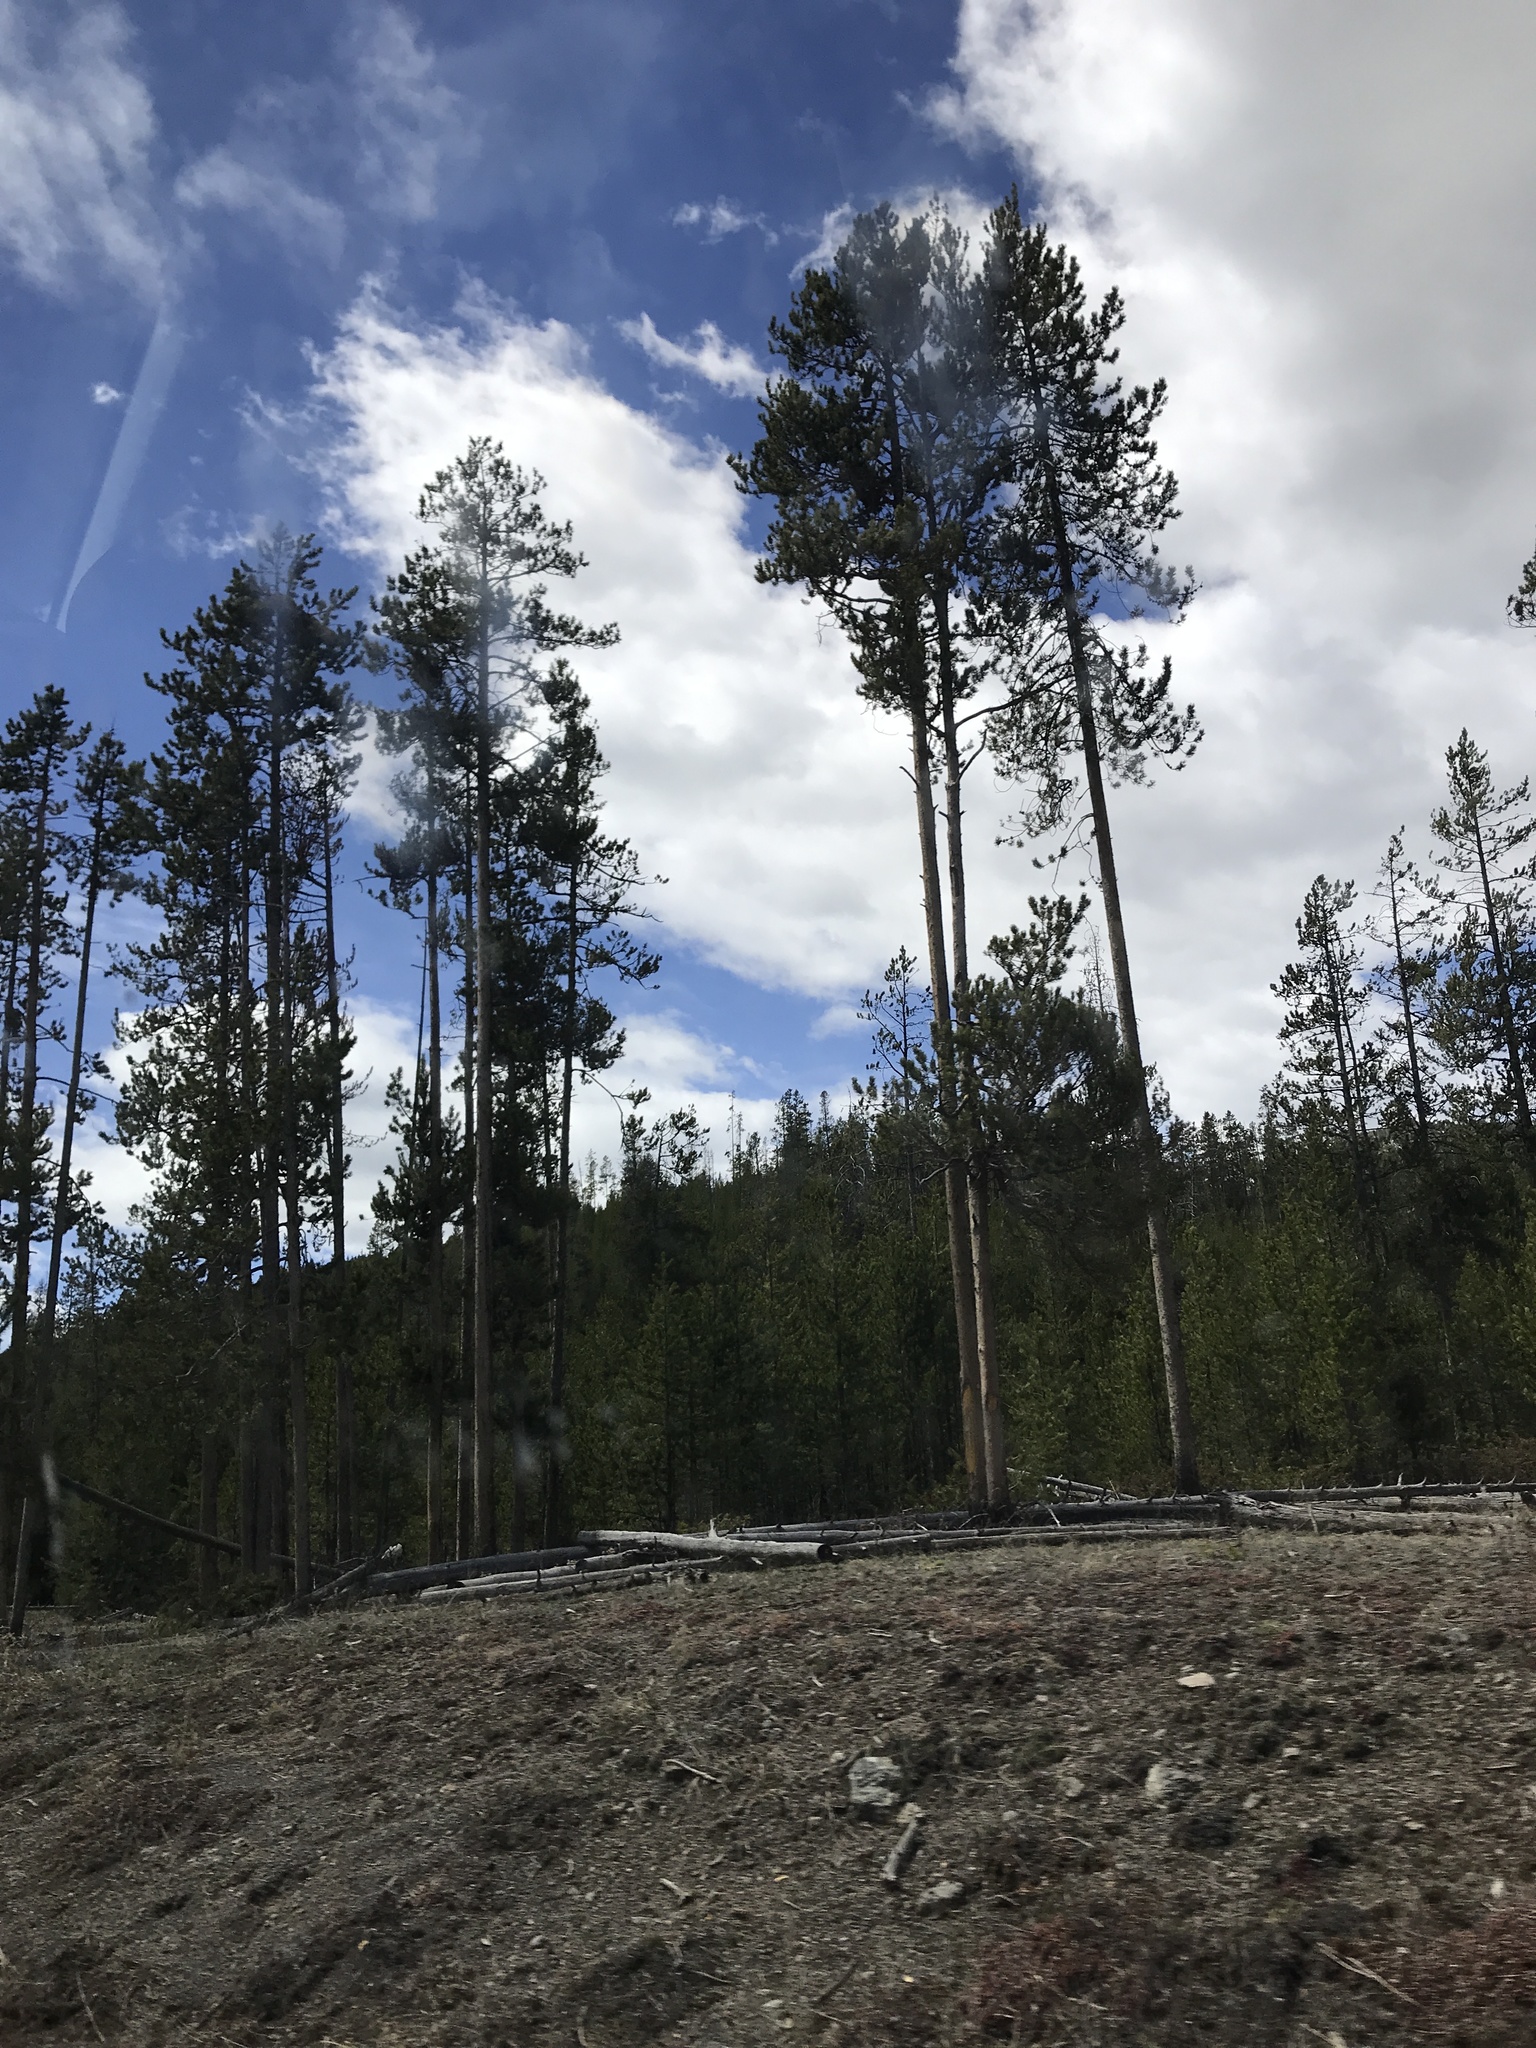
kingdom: Plantae
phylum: Tracheophyta
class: Pinopsida
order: Pinales
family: Pinaceae
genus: Pinus
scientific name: Pinus contorta
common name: Lodgepole pine
